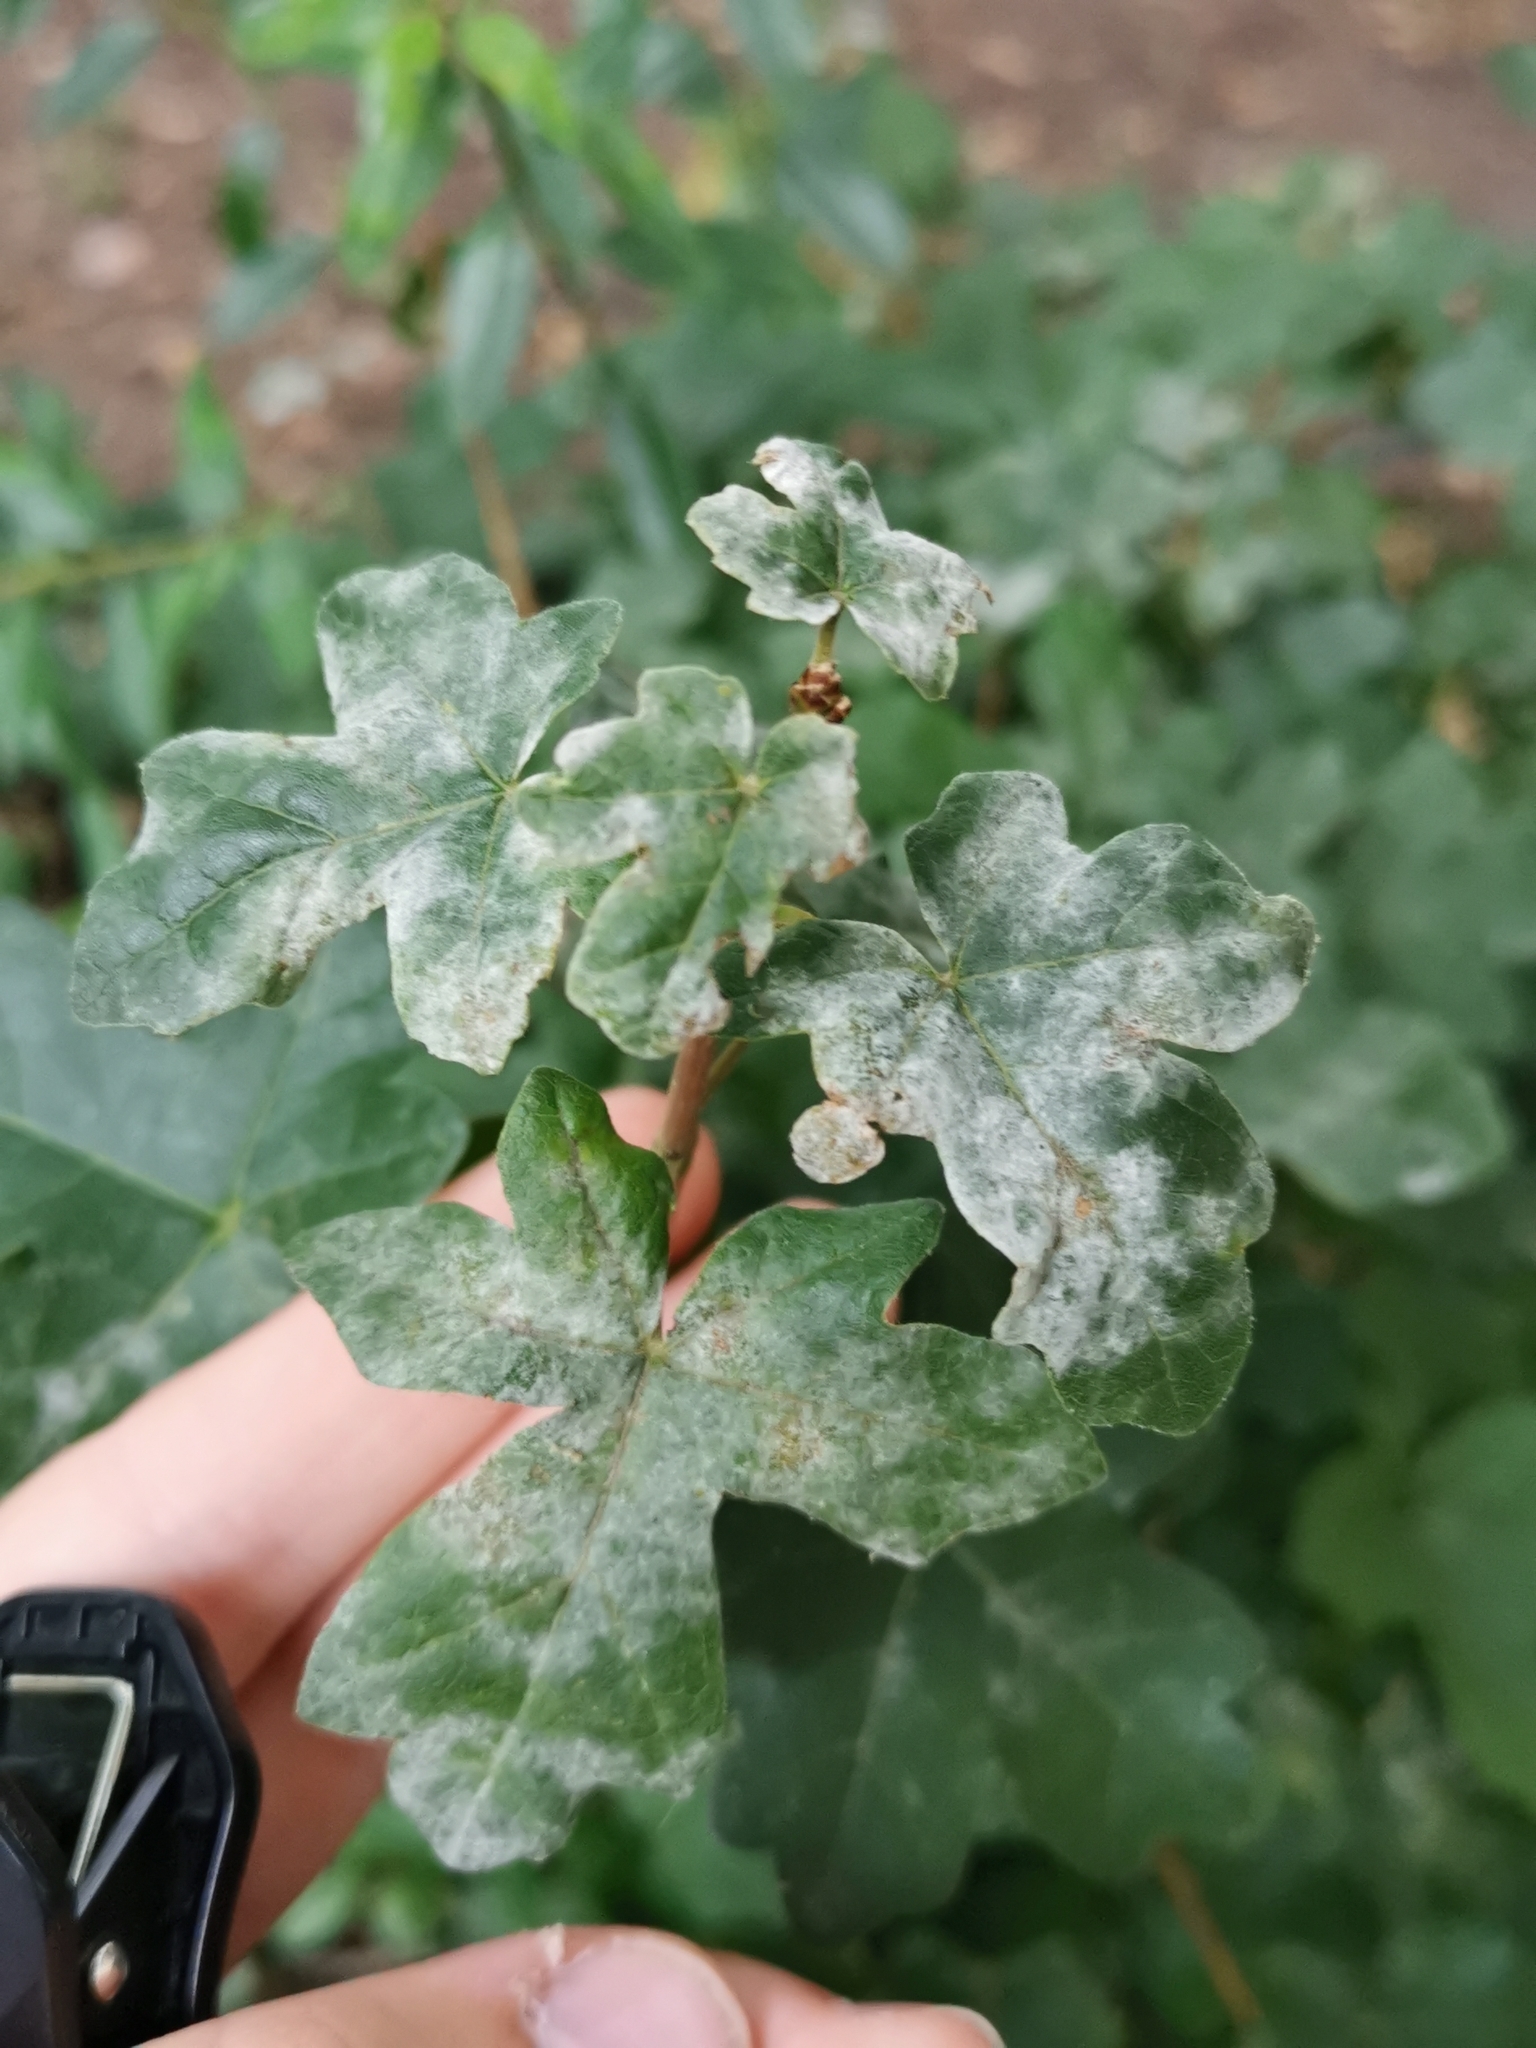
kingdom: Fungi
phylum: Ascomycota
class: Leotiomycetes
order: Helotiales
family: Erysiphaceae
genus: Sawadaea
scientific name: Sawadaea bicornis
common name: Maple mildew
